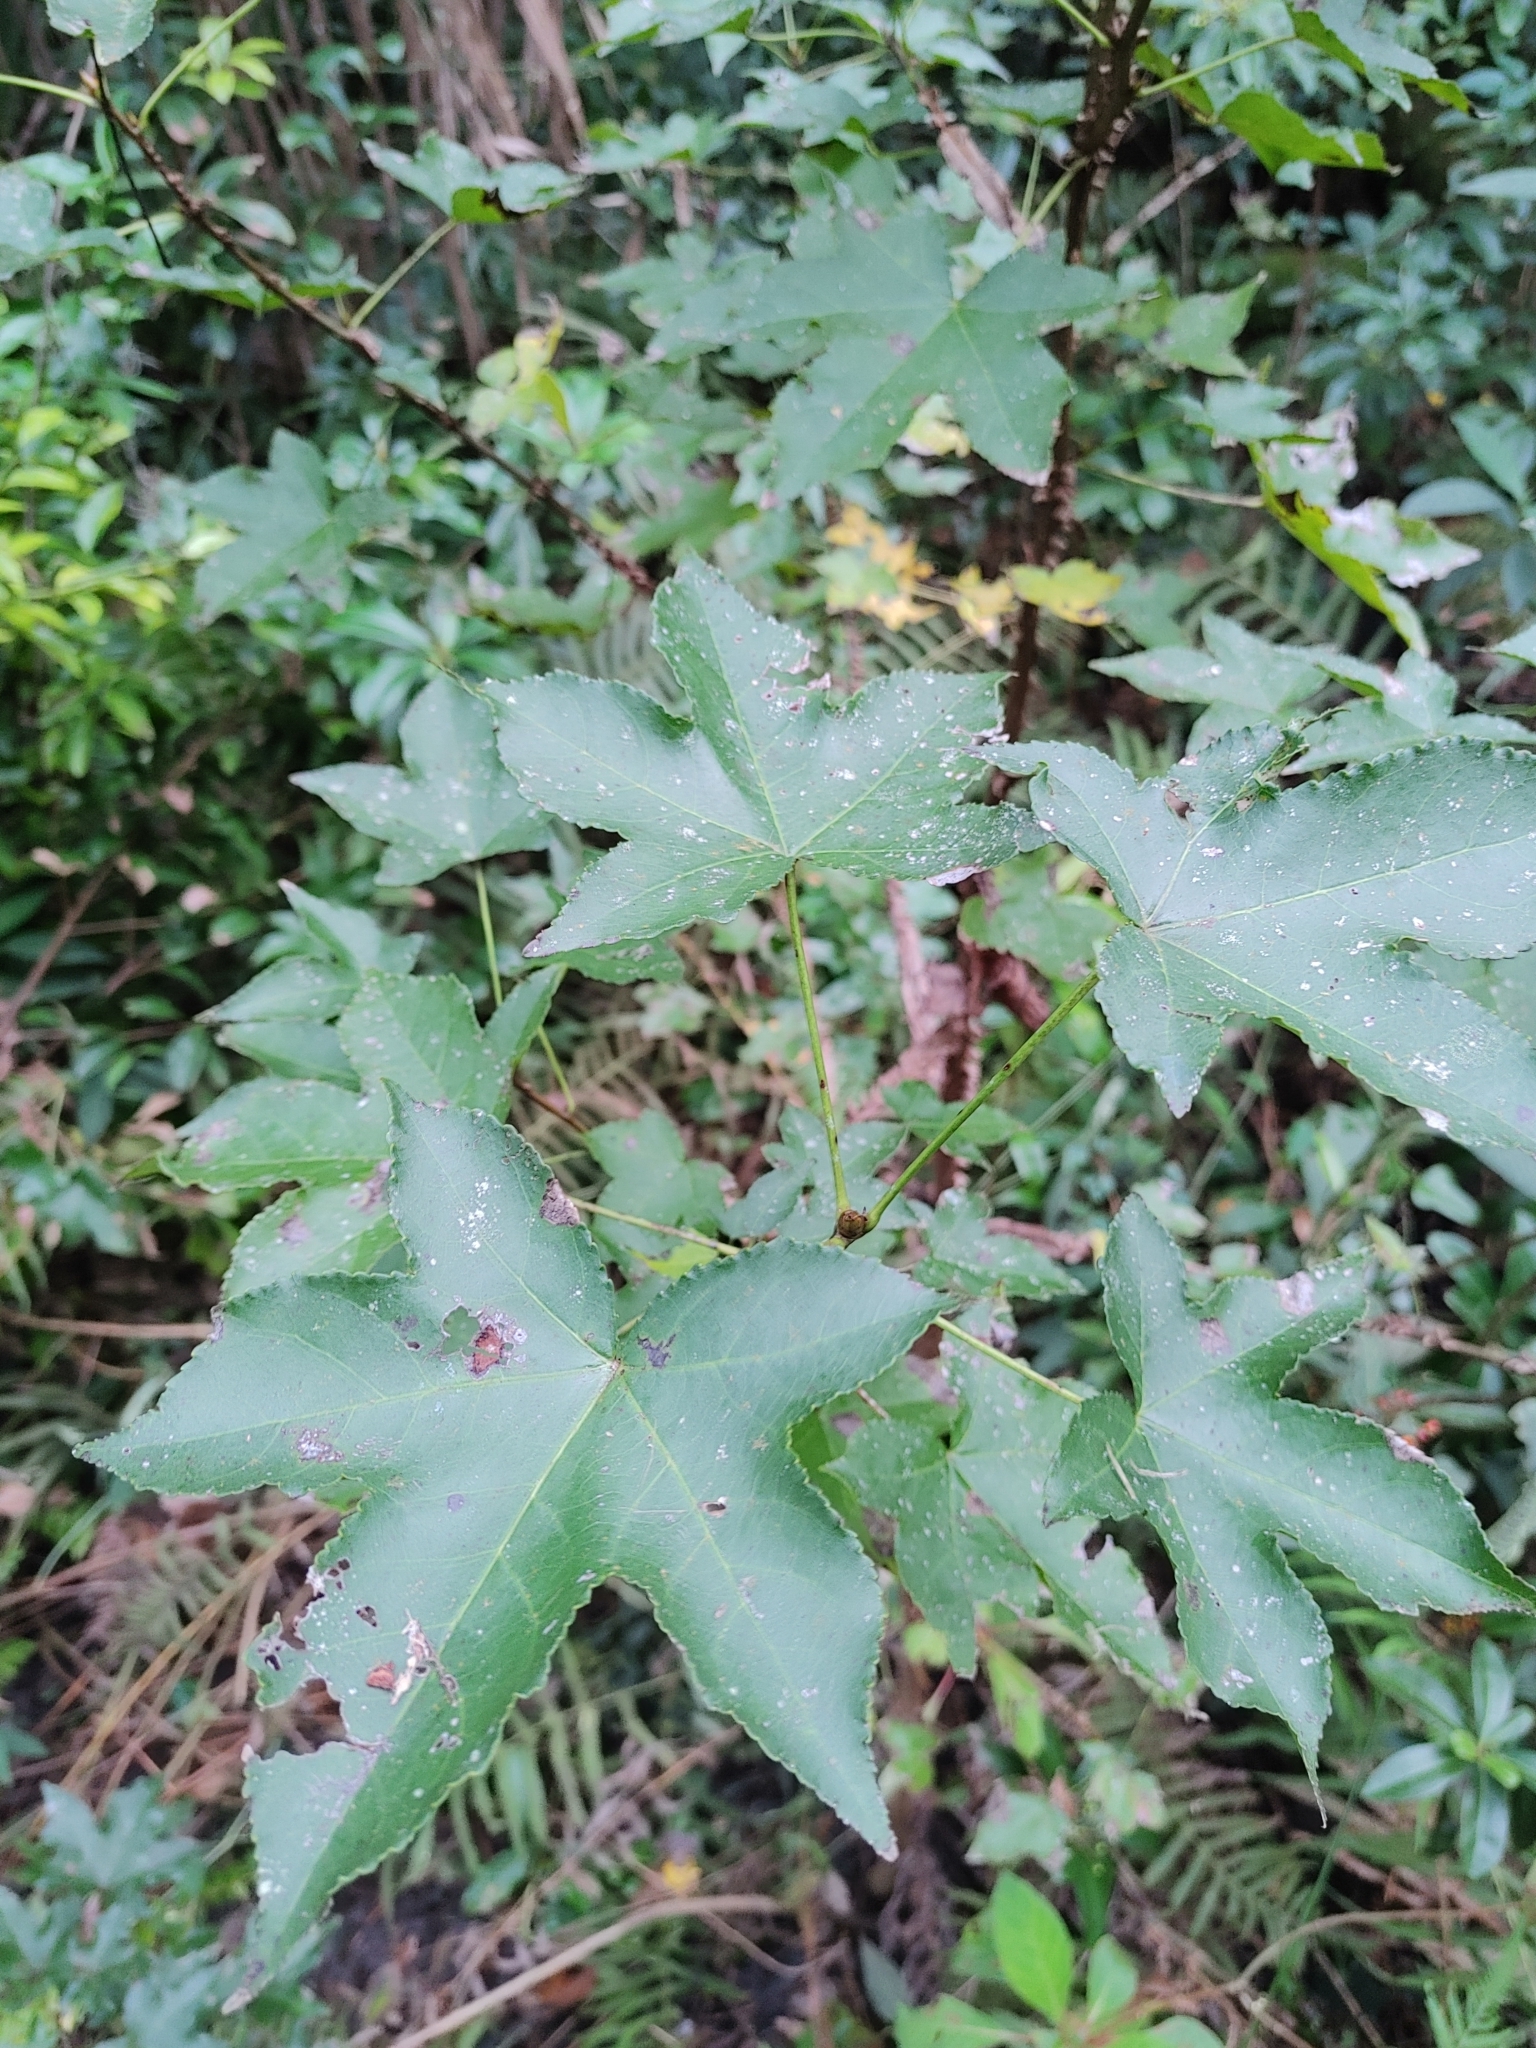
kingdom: Plantae
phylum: Tracheophyta
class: Magnoliopsida
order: Saxifragales
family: Altingiaceae
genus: Liquidambar
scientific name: Liquidambar styraciflua
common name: Sweet gum
